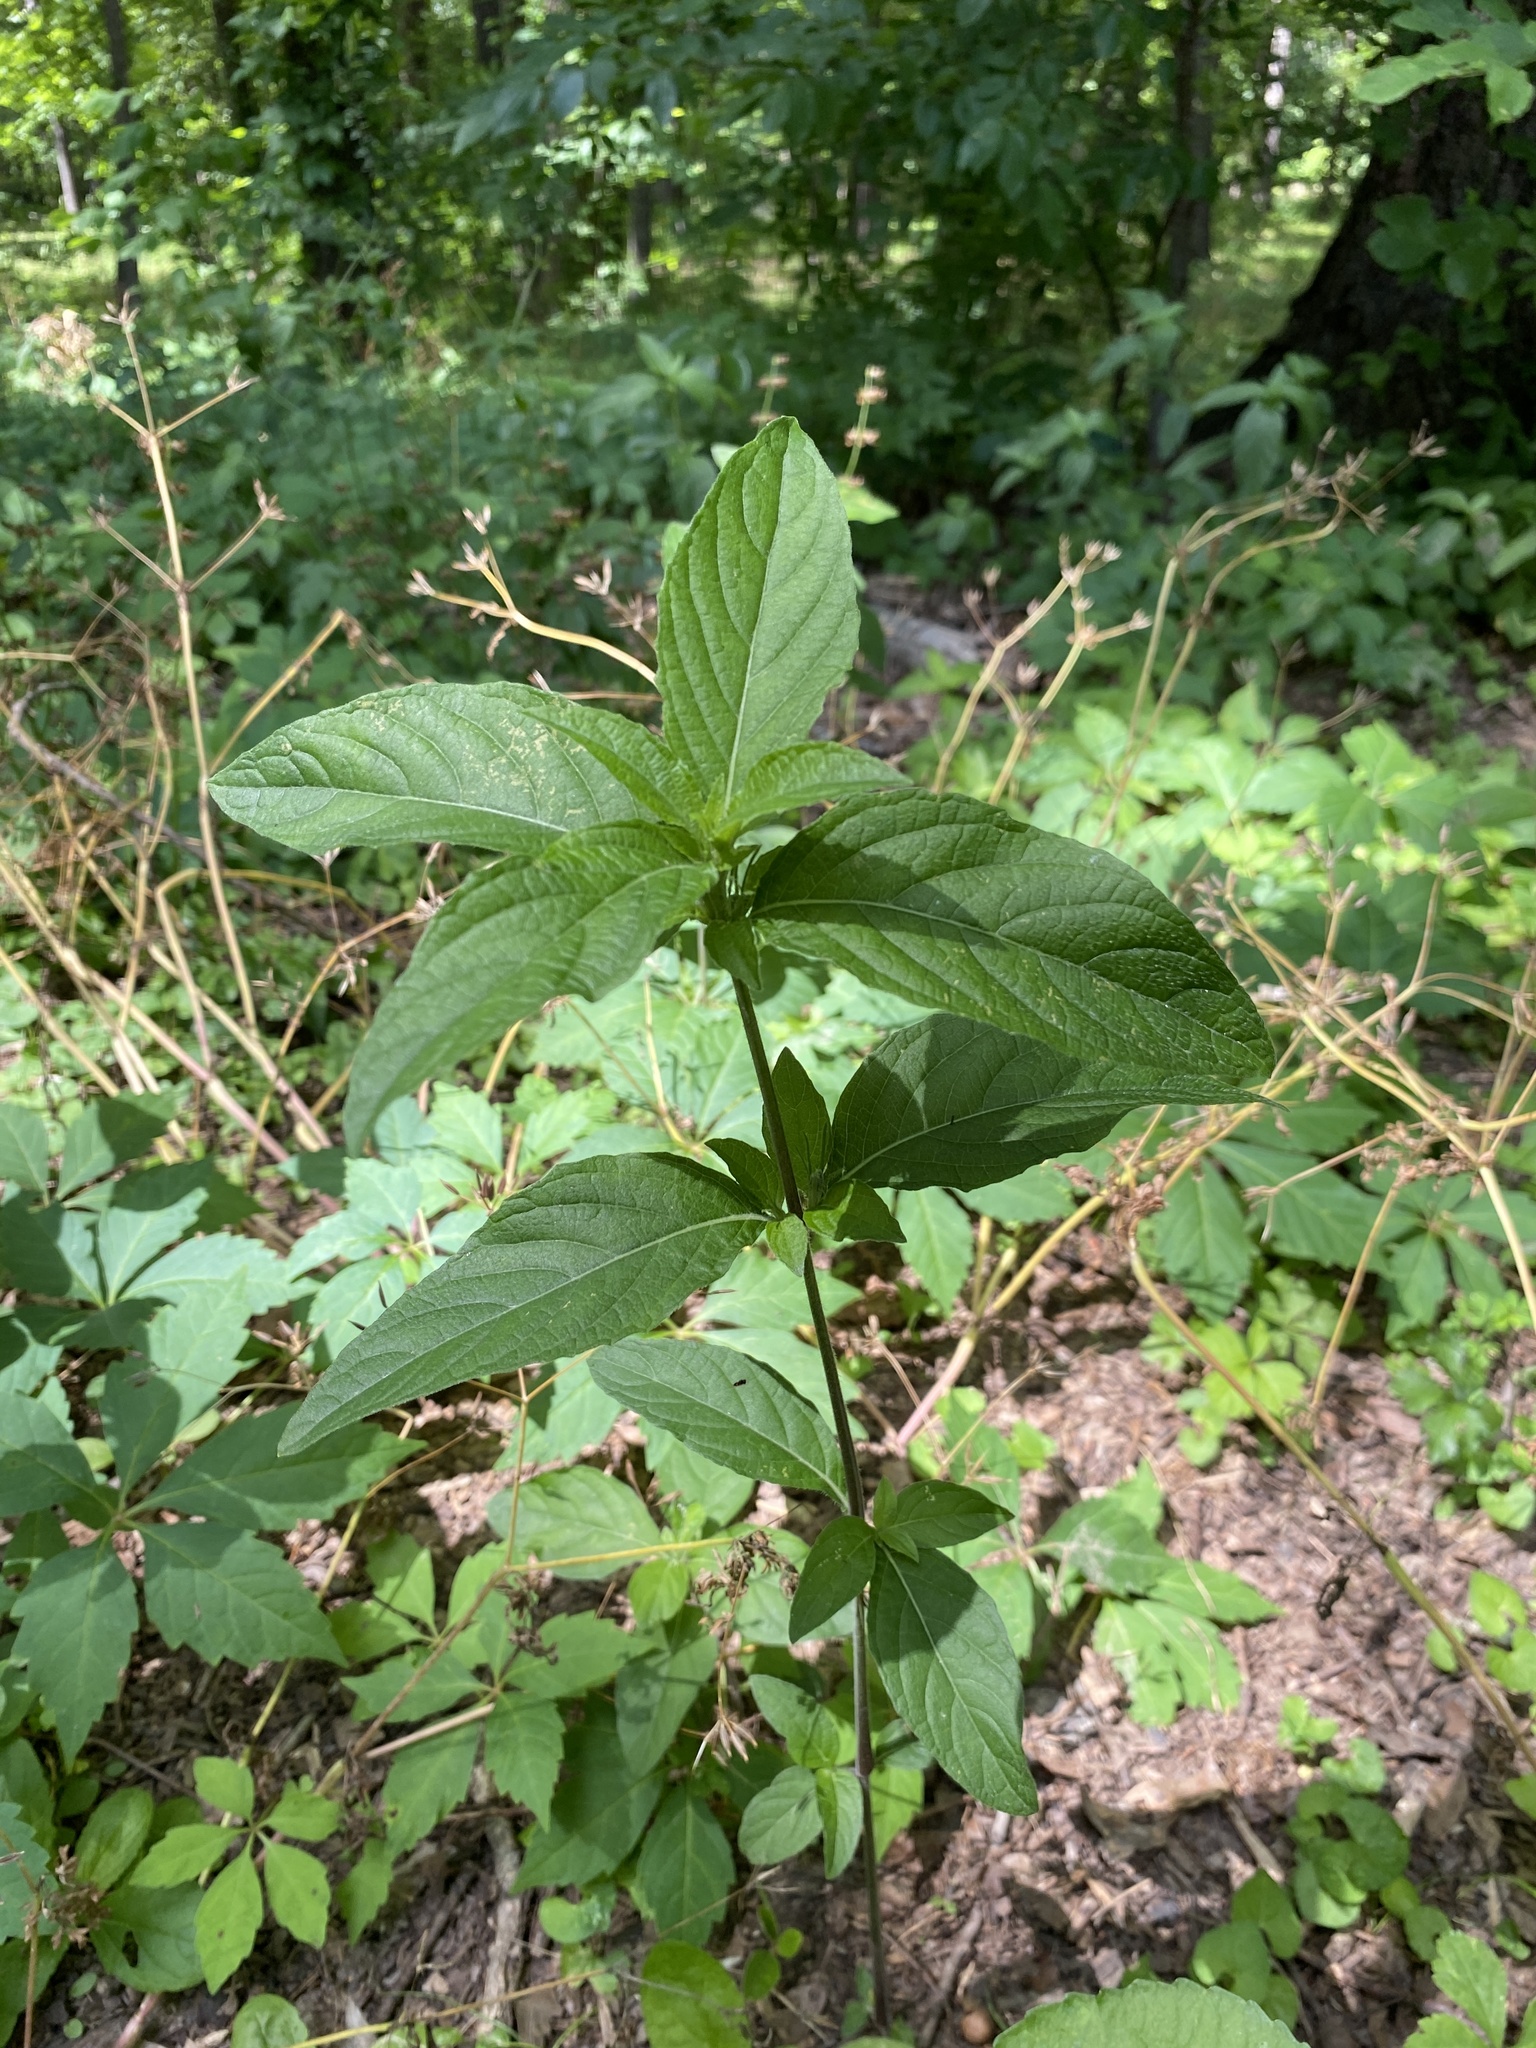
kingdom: Plantae
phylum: Tracheophyta
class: Magnoliopsida
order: Lamiales
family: Acanthaceae
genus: Ruellia
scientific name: Ruellia strepens
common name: Limestone wild petunia
